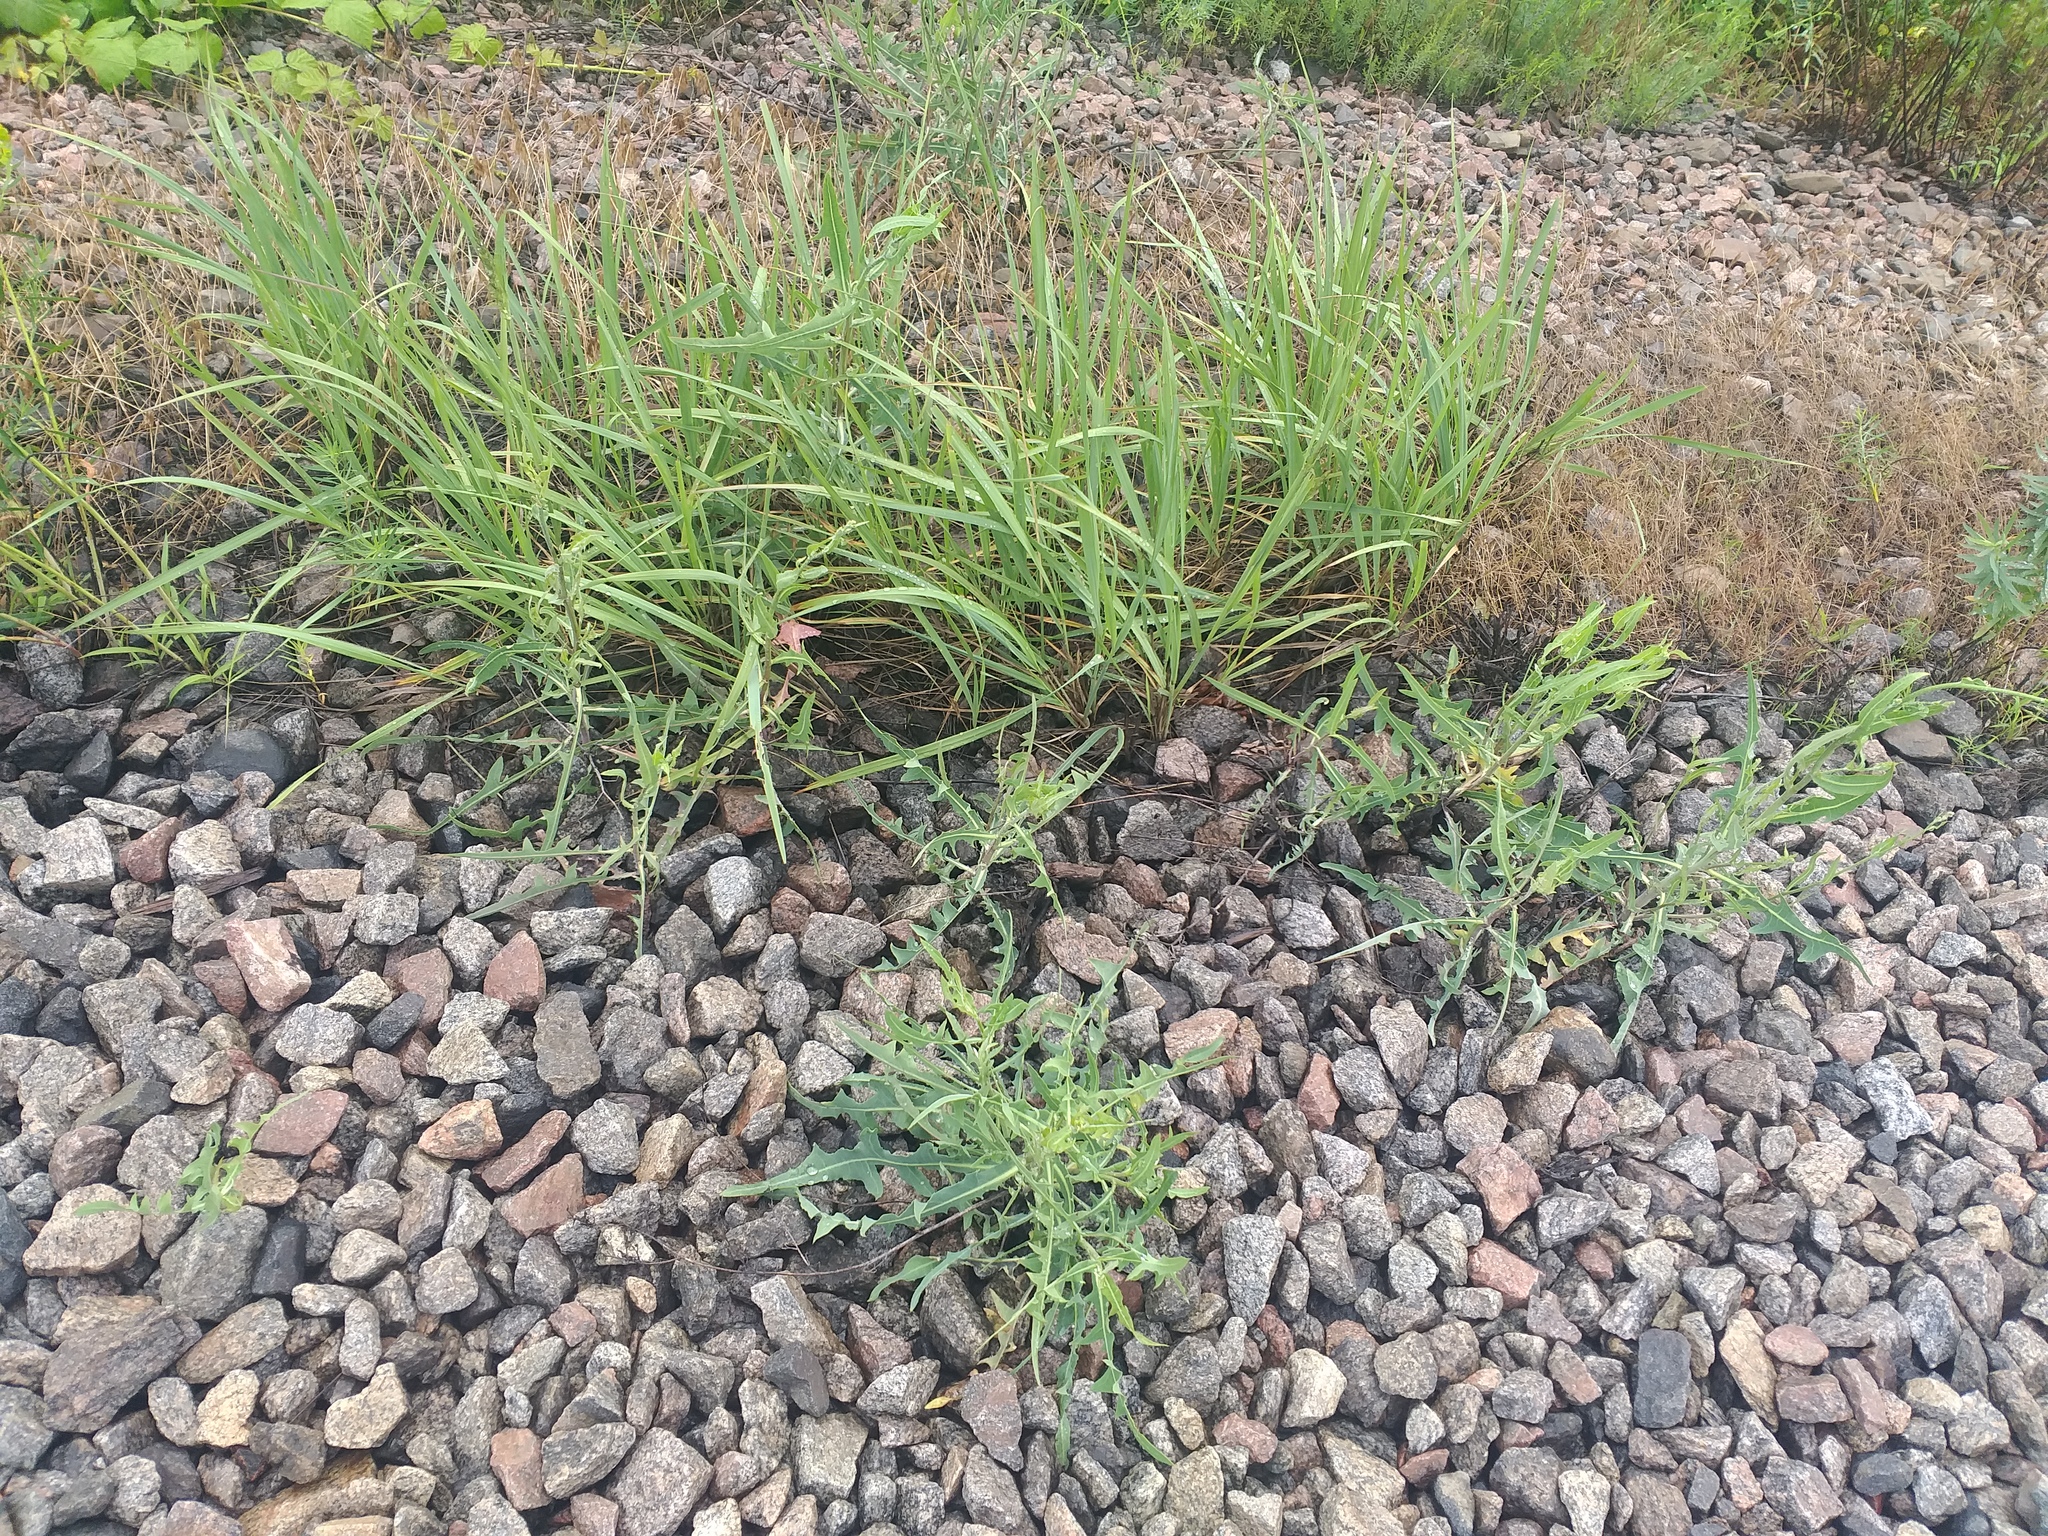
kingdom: Plantae
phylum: Tracheophyta
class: Magnoliopsida
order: Asterales
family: Asteraceae
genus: Lactuca
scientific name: Lactuca tatarica
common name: Blue lettuce
